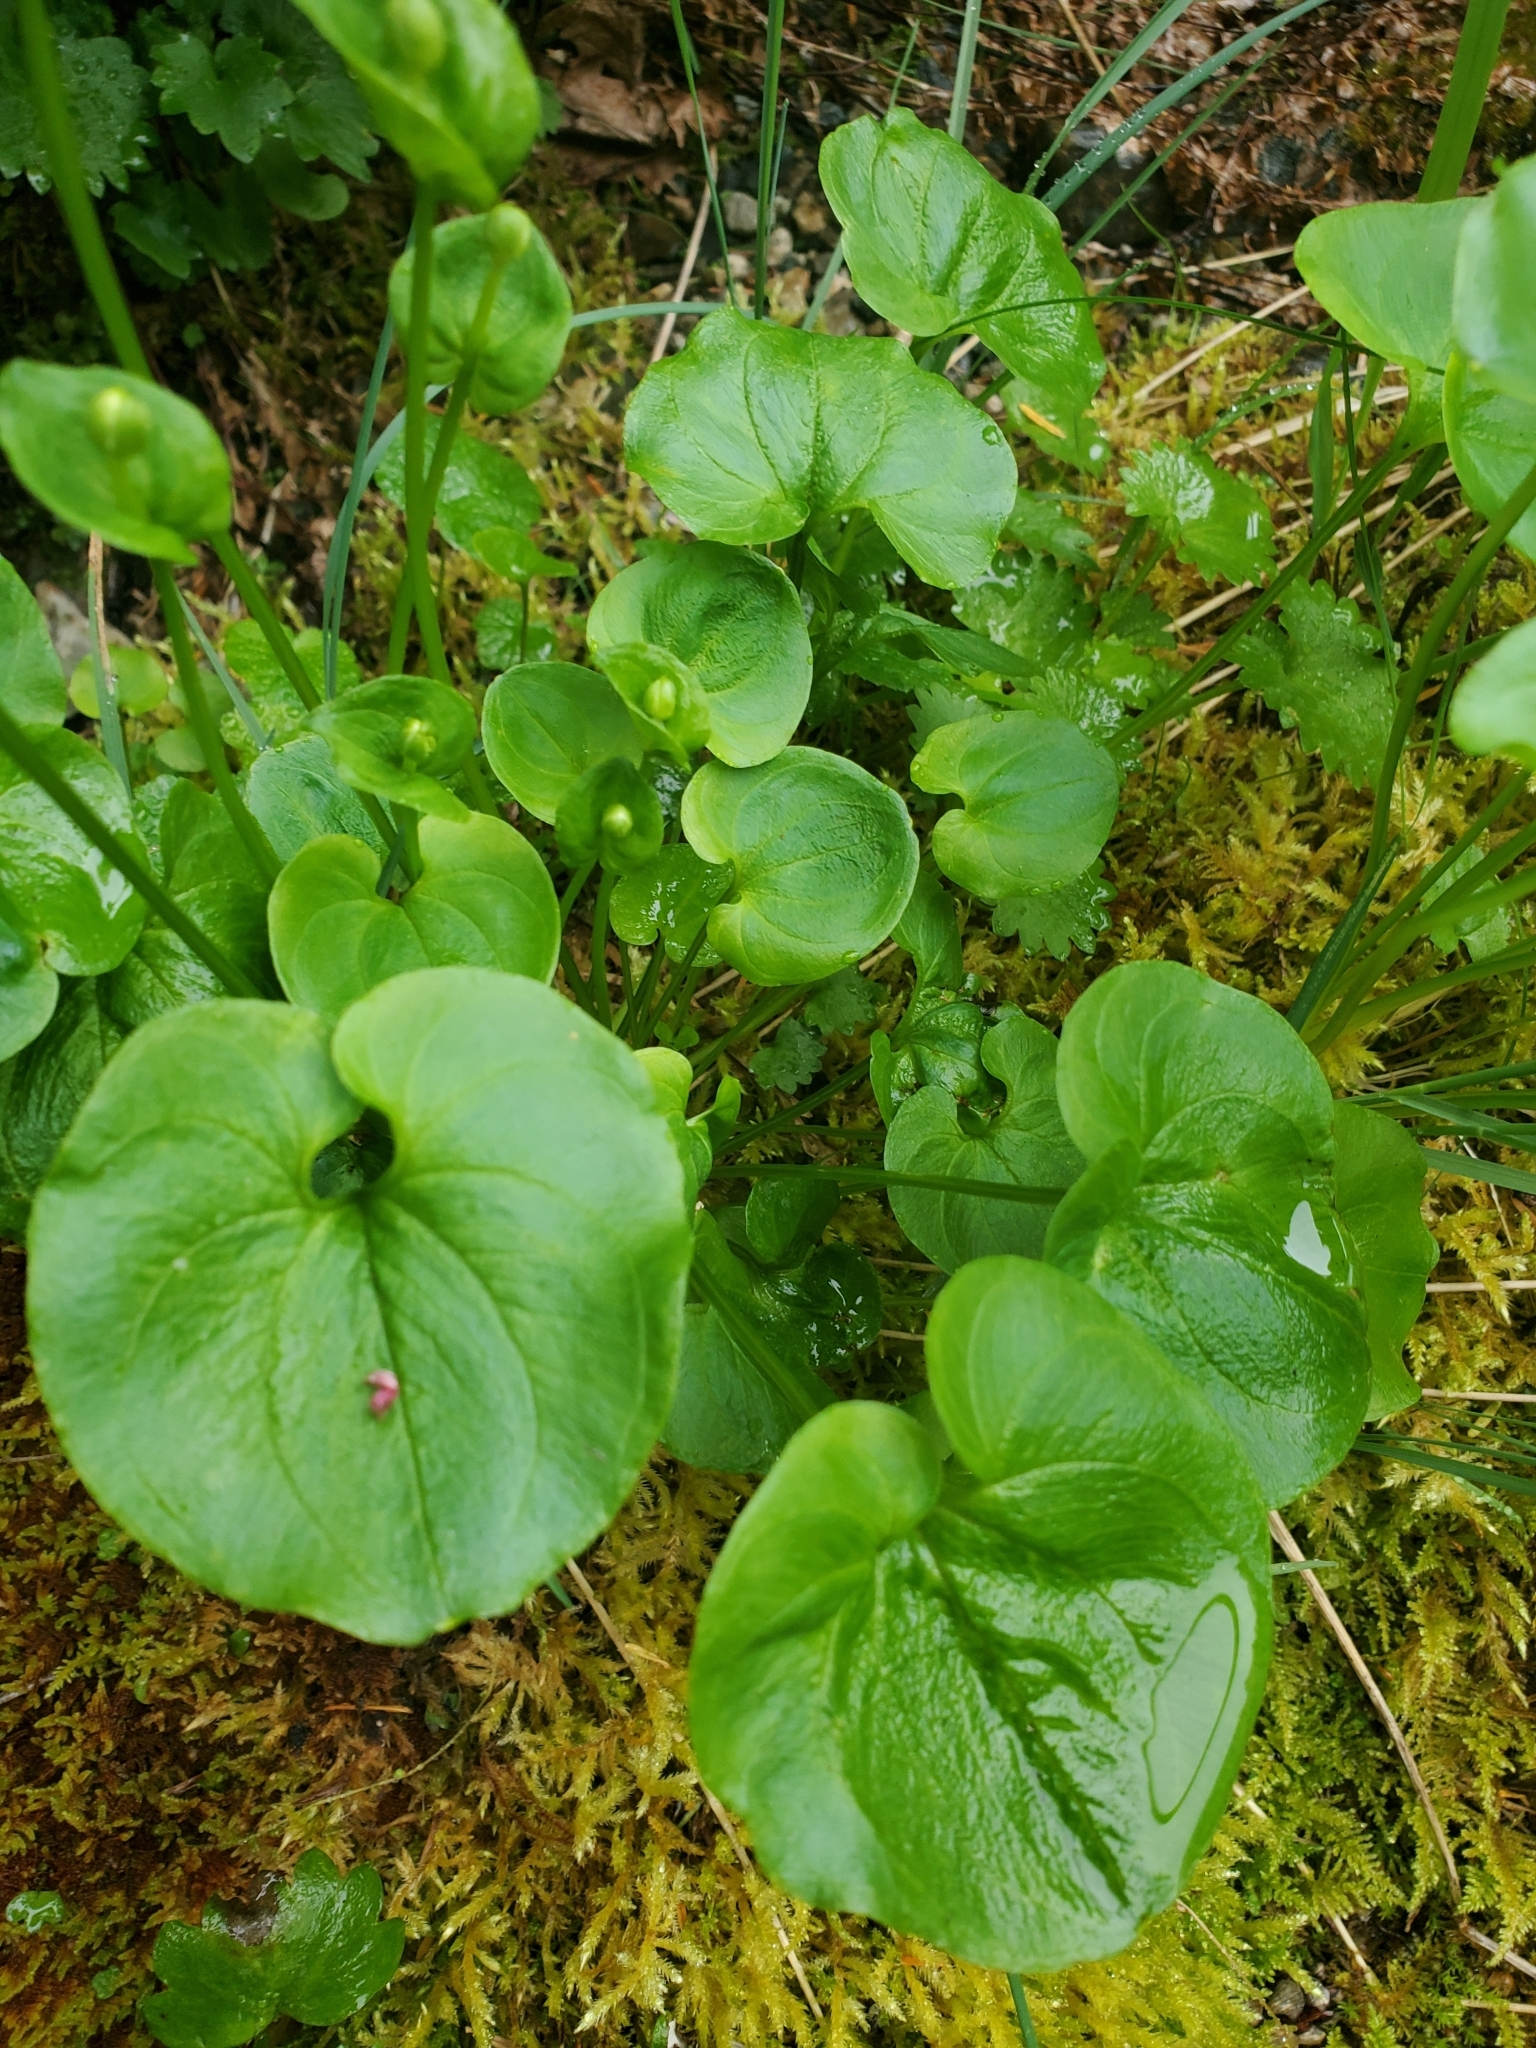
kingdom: Plantae
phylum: Tracheophyta
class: Magnoliopsida
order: Celastrales
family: Parnassiaceae
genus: Parnassia
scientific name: Parnassia fimbriata
